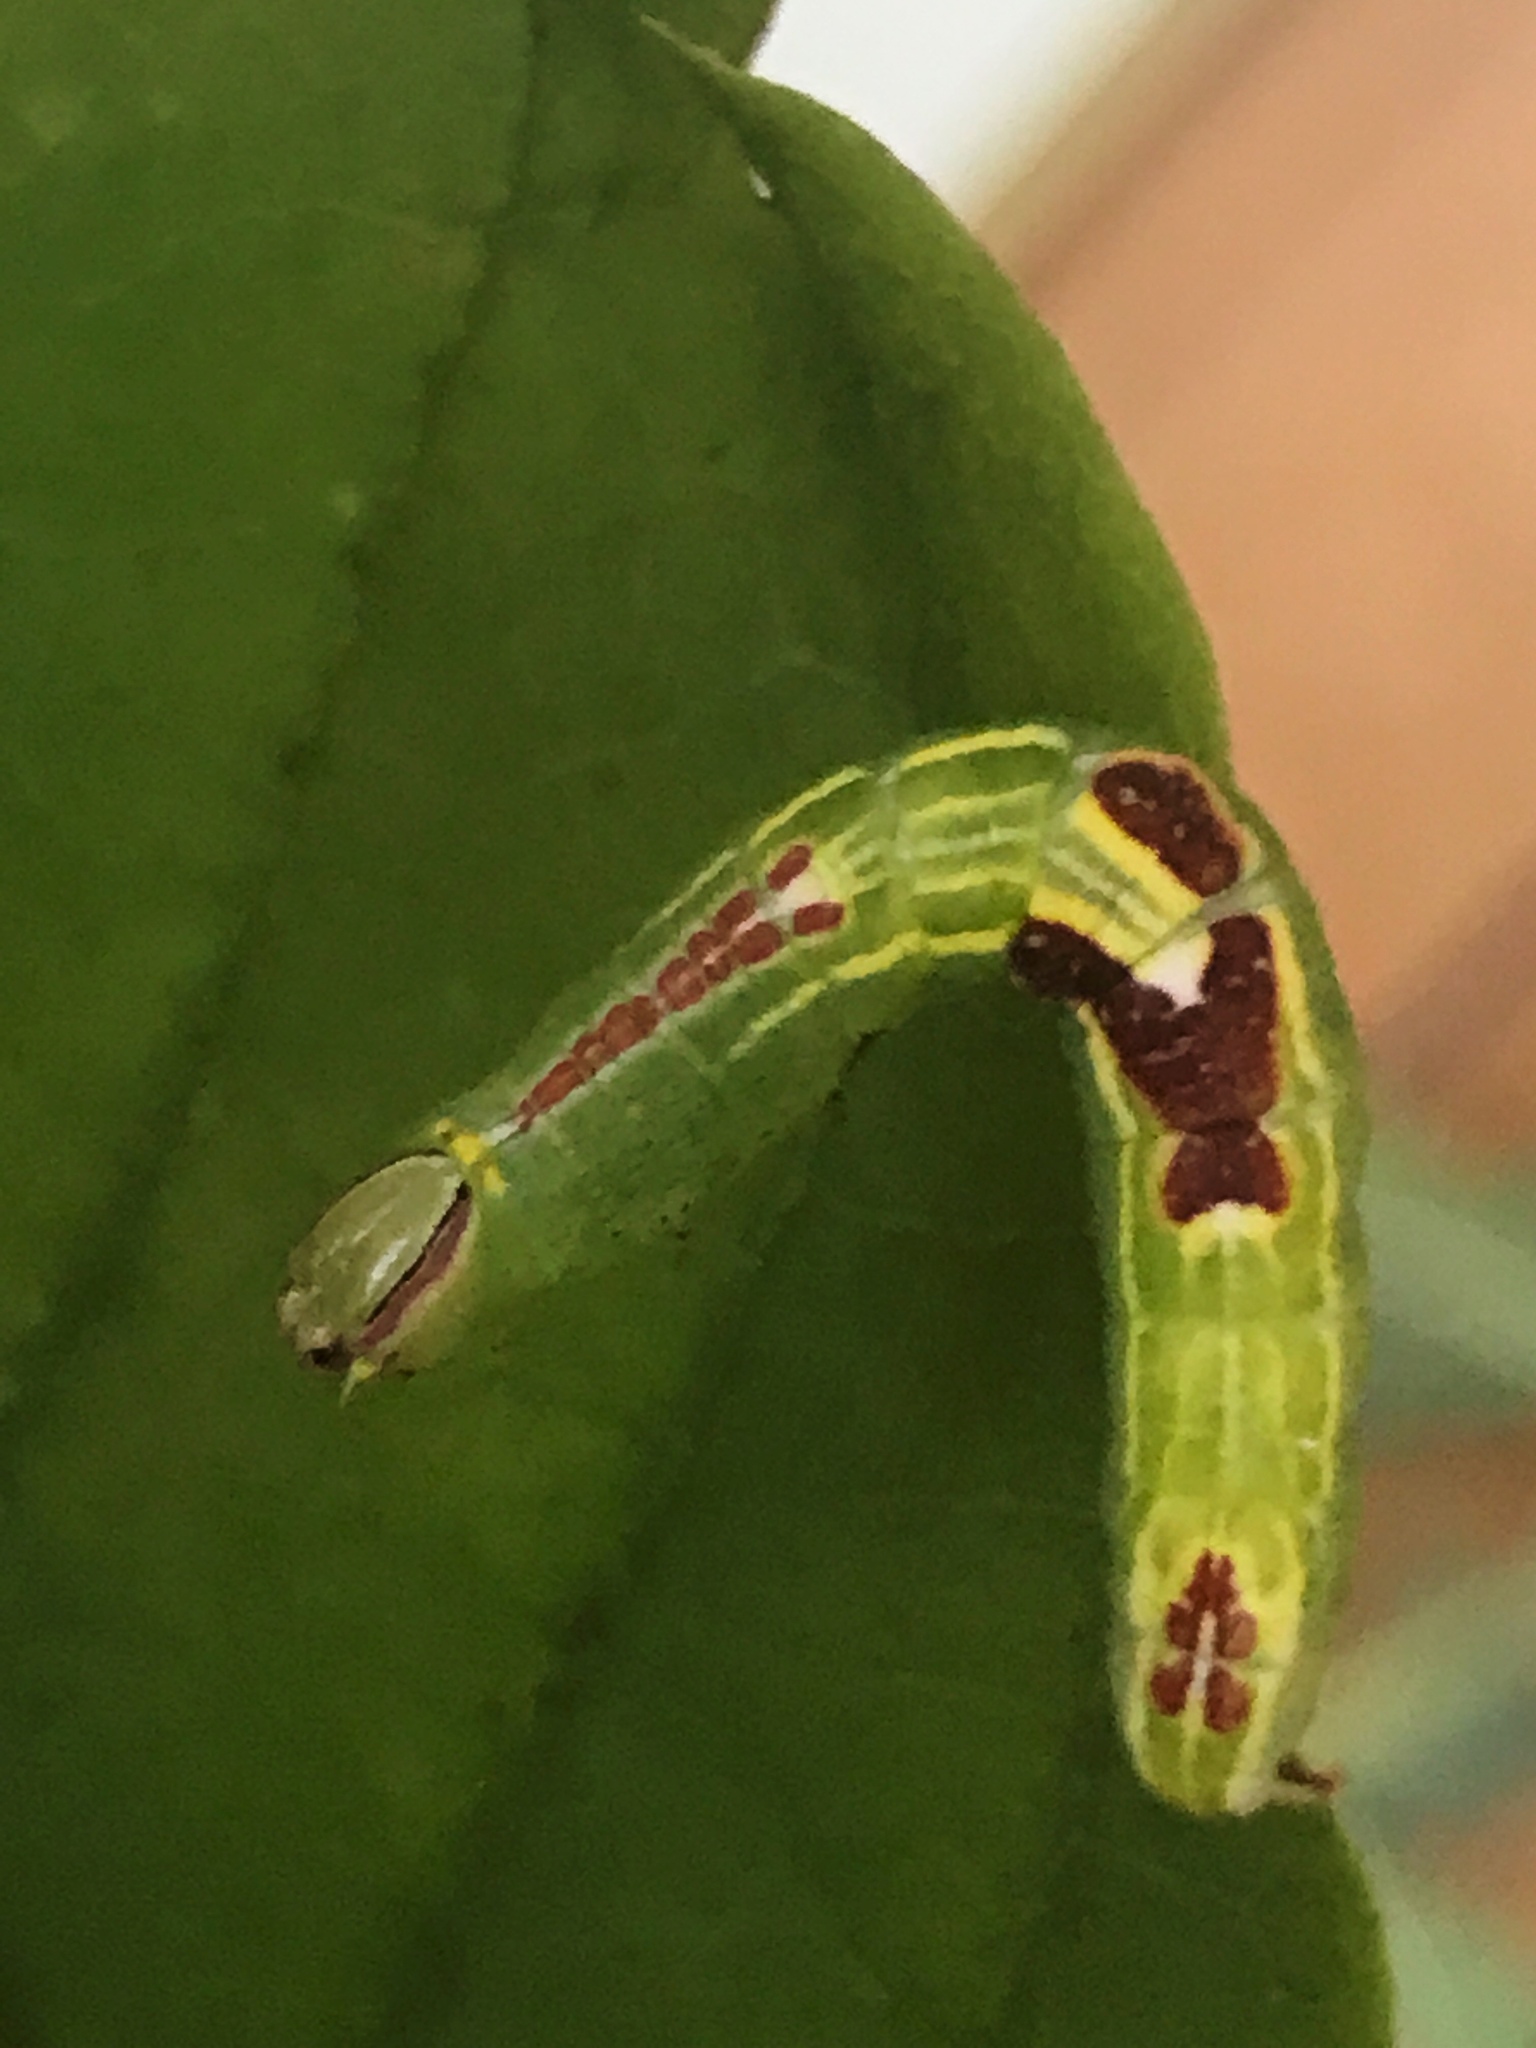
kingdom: Animalia
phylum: Arthropoda
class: Insecta
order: Lepidoptera
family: Notodontidae
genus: Disphragis
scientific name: Disphragis Cecrita guttivitta
